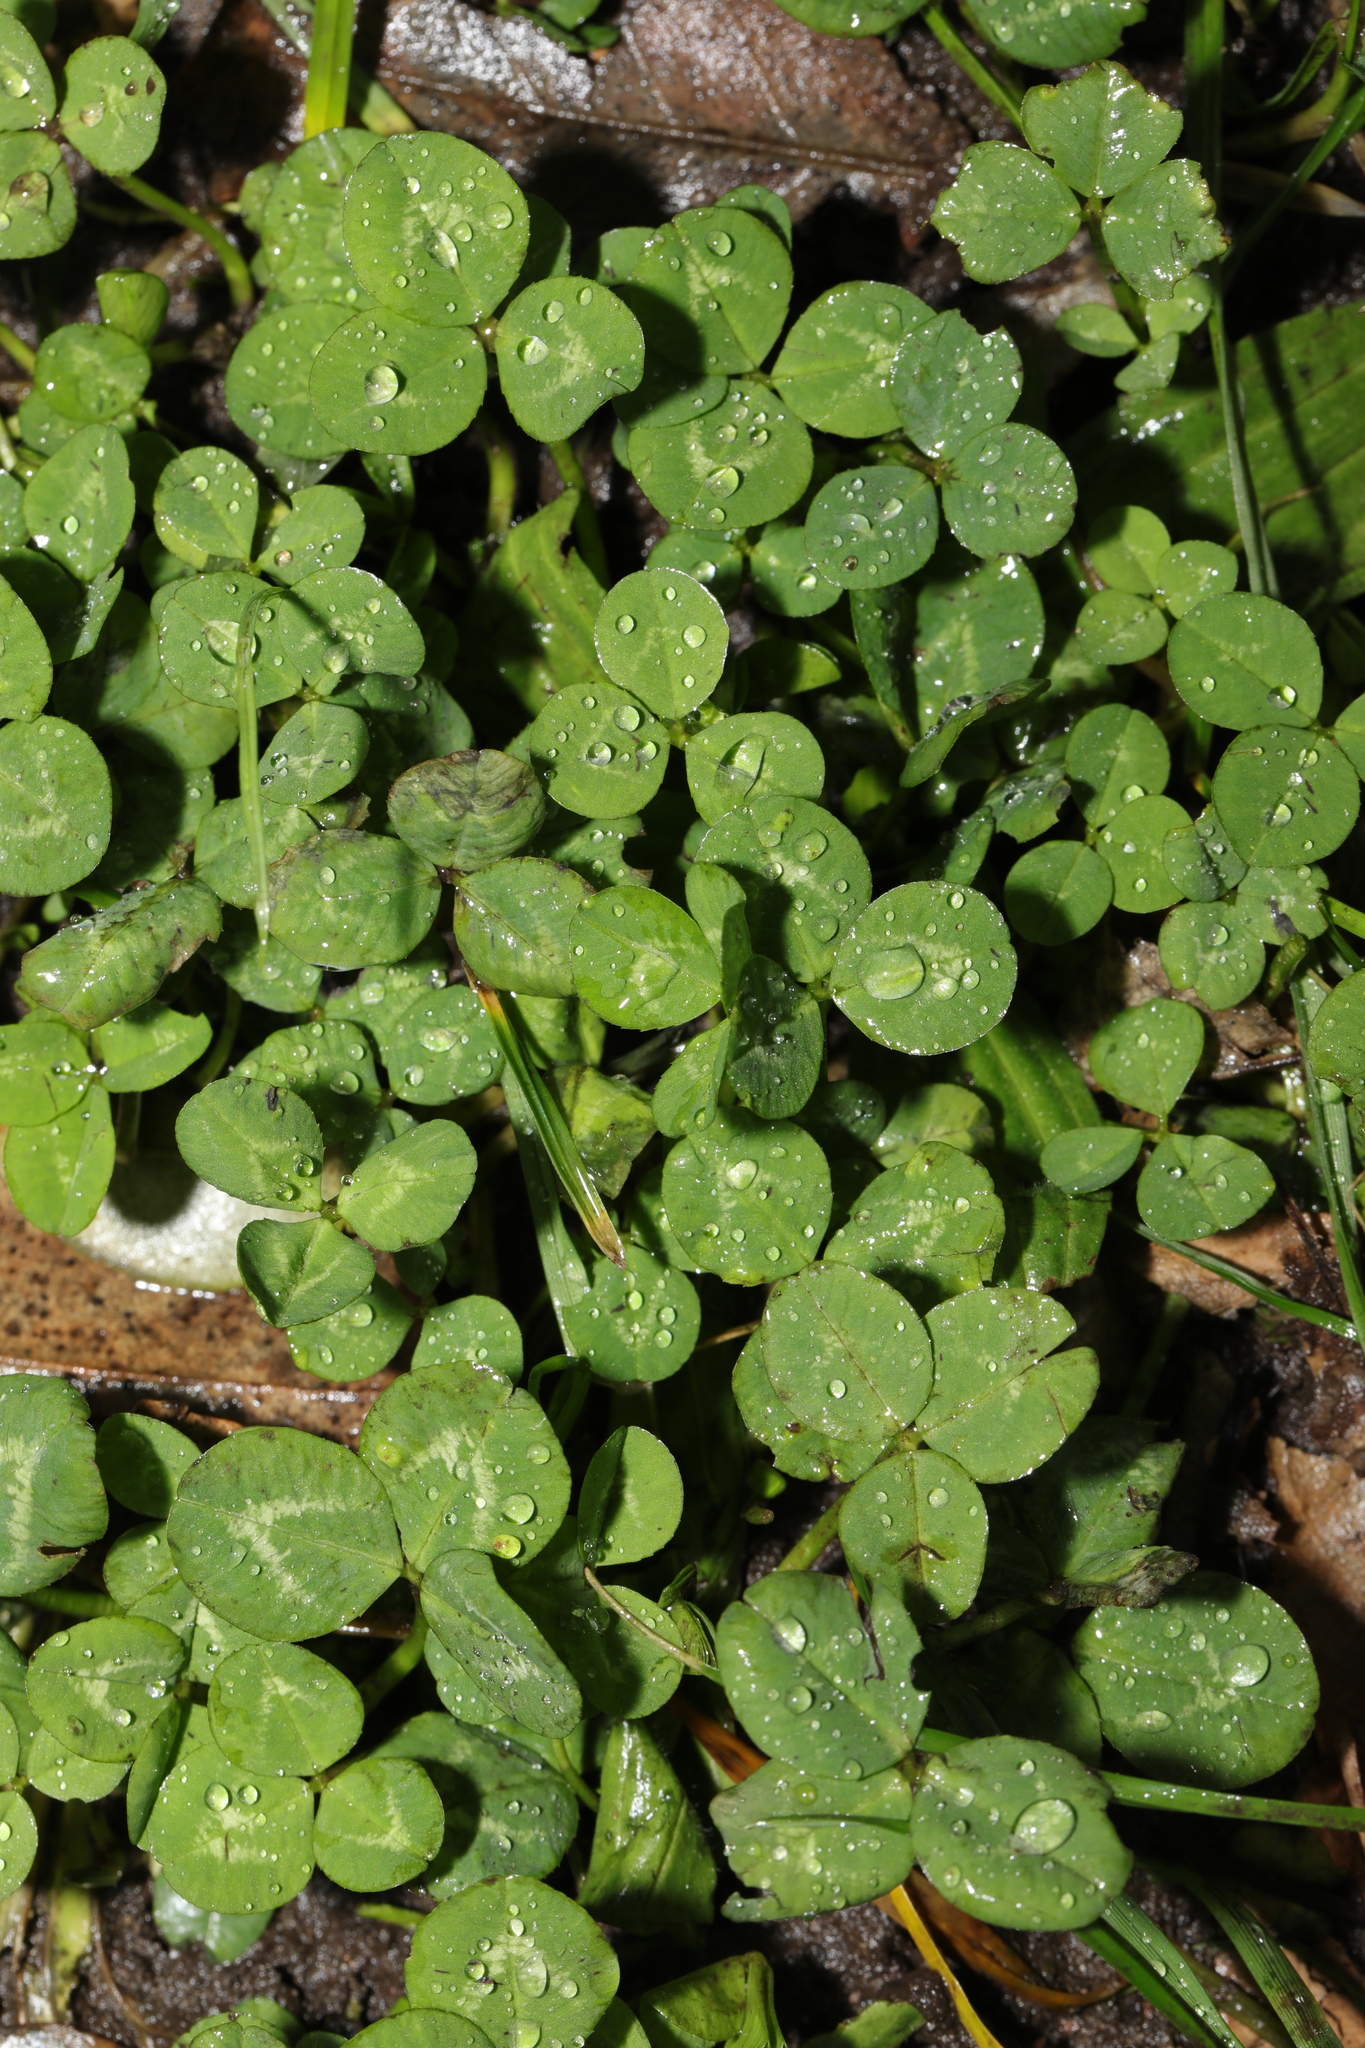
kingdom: Plantae
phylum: Tracheophyta
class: Magnoliopsida
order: Fabales
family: Fabaceae
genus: Trifolium
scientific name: Trifolium repens
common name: White clover
